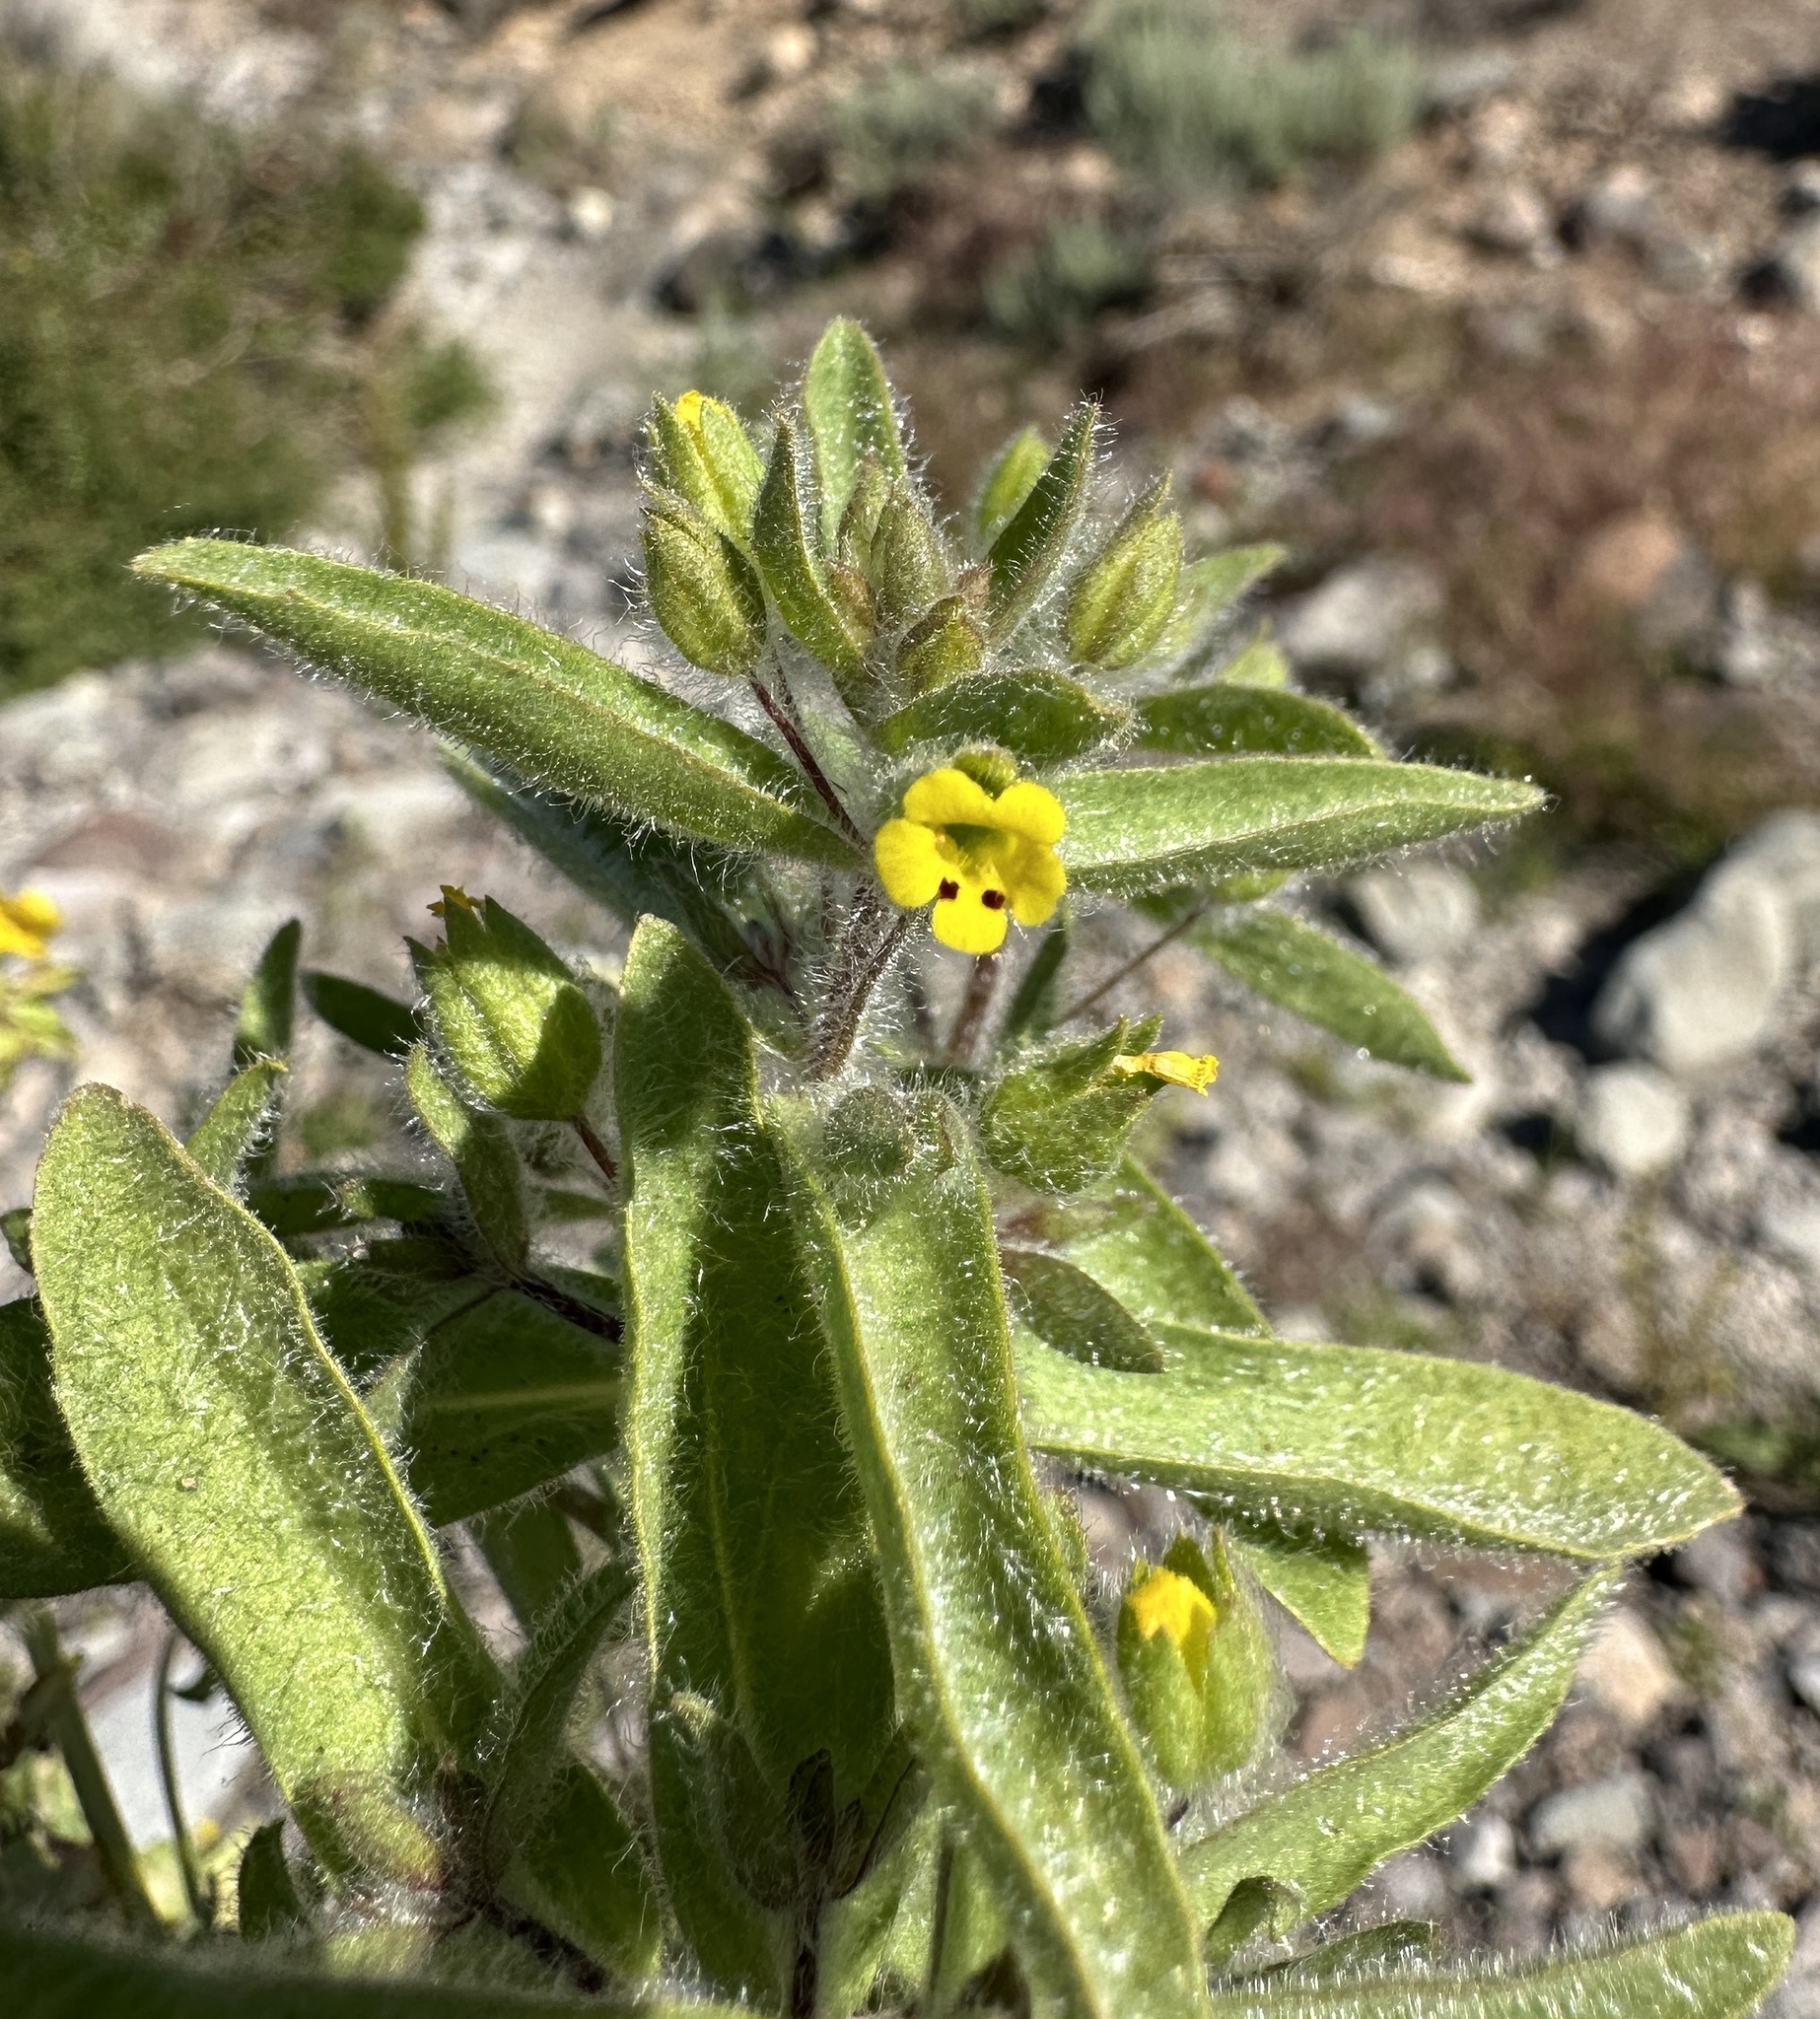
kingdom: Plantae
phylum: Tracheophyta
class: Magnoliopsida
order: Lamiales
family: Phrymaceae
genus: Mimetanthe
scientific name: Mimetanthe pilosa
